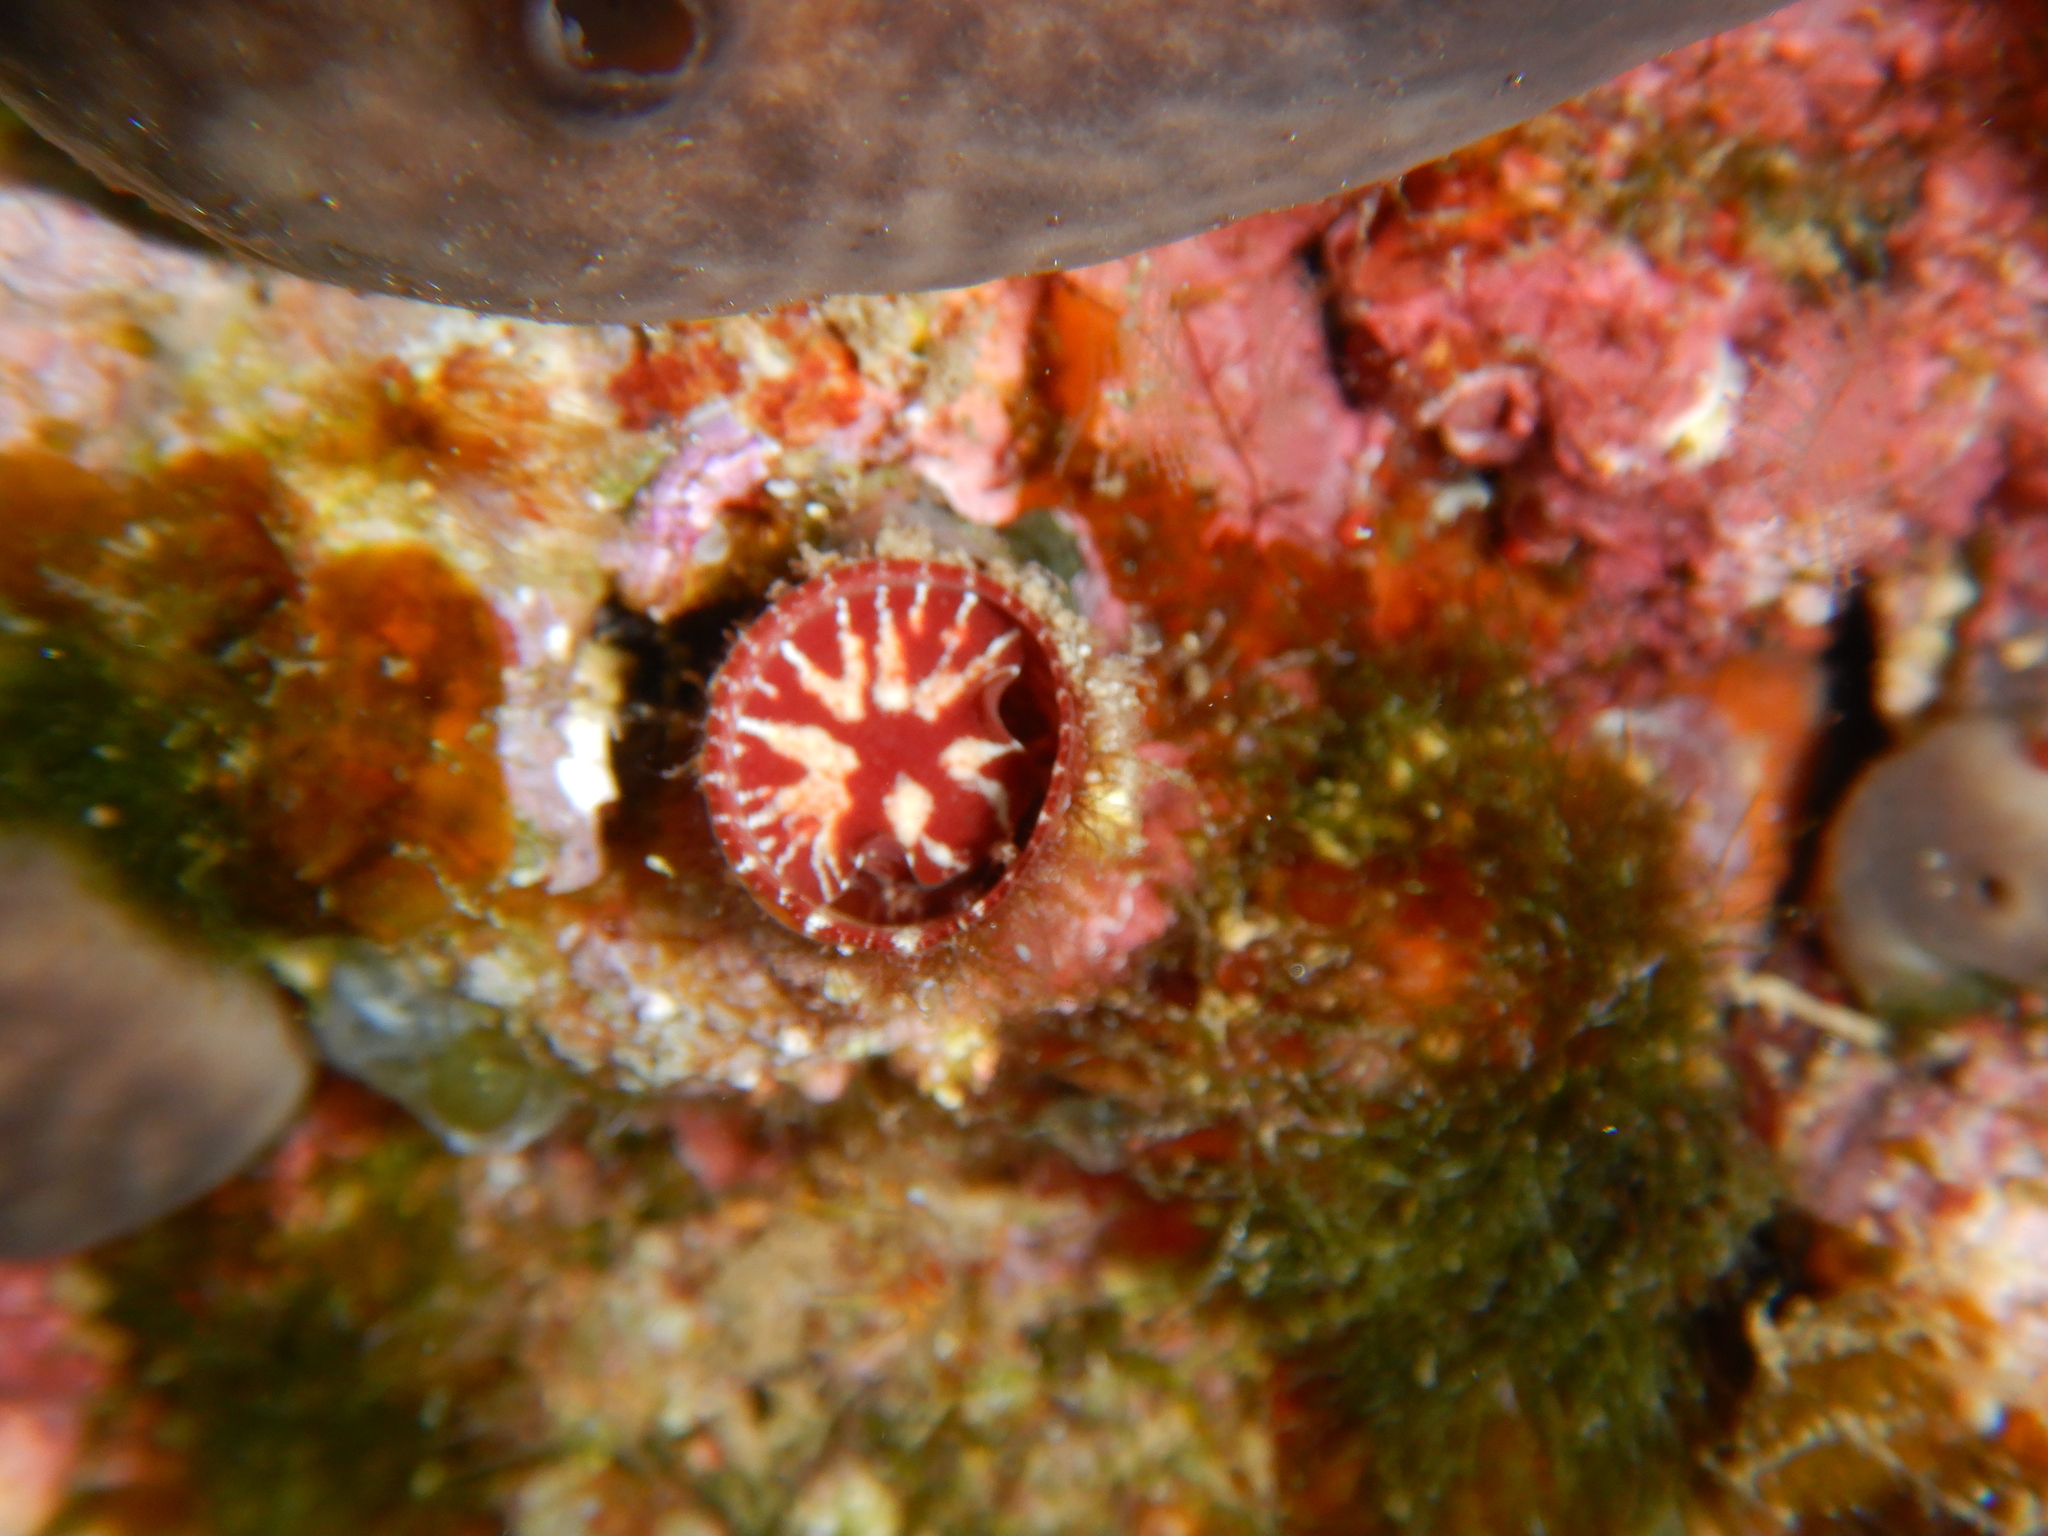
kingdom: Animalia
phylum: Mollusca
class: Gastropoda
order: Littorinimorpha
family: Vermetidae
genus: Thylacodes
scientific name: Thylacodes arenarius
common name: Giant worm shell
